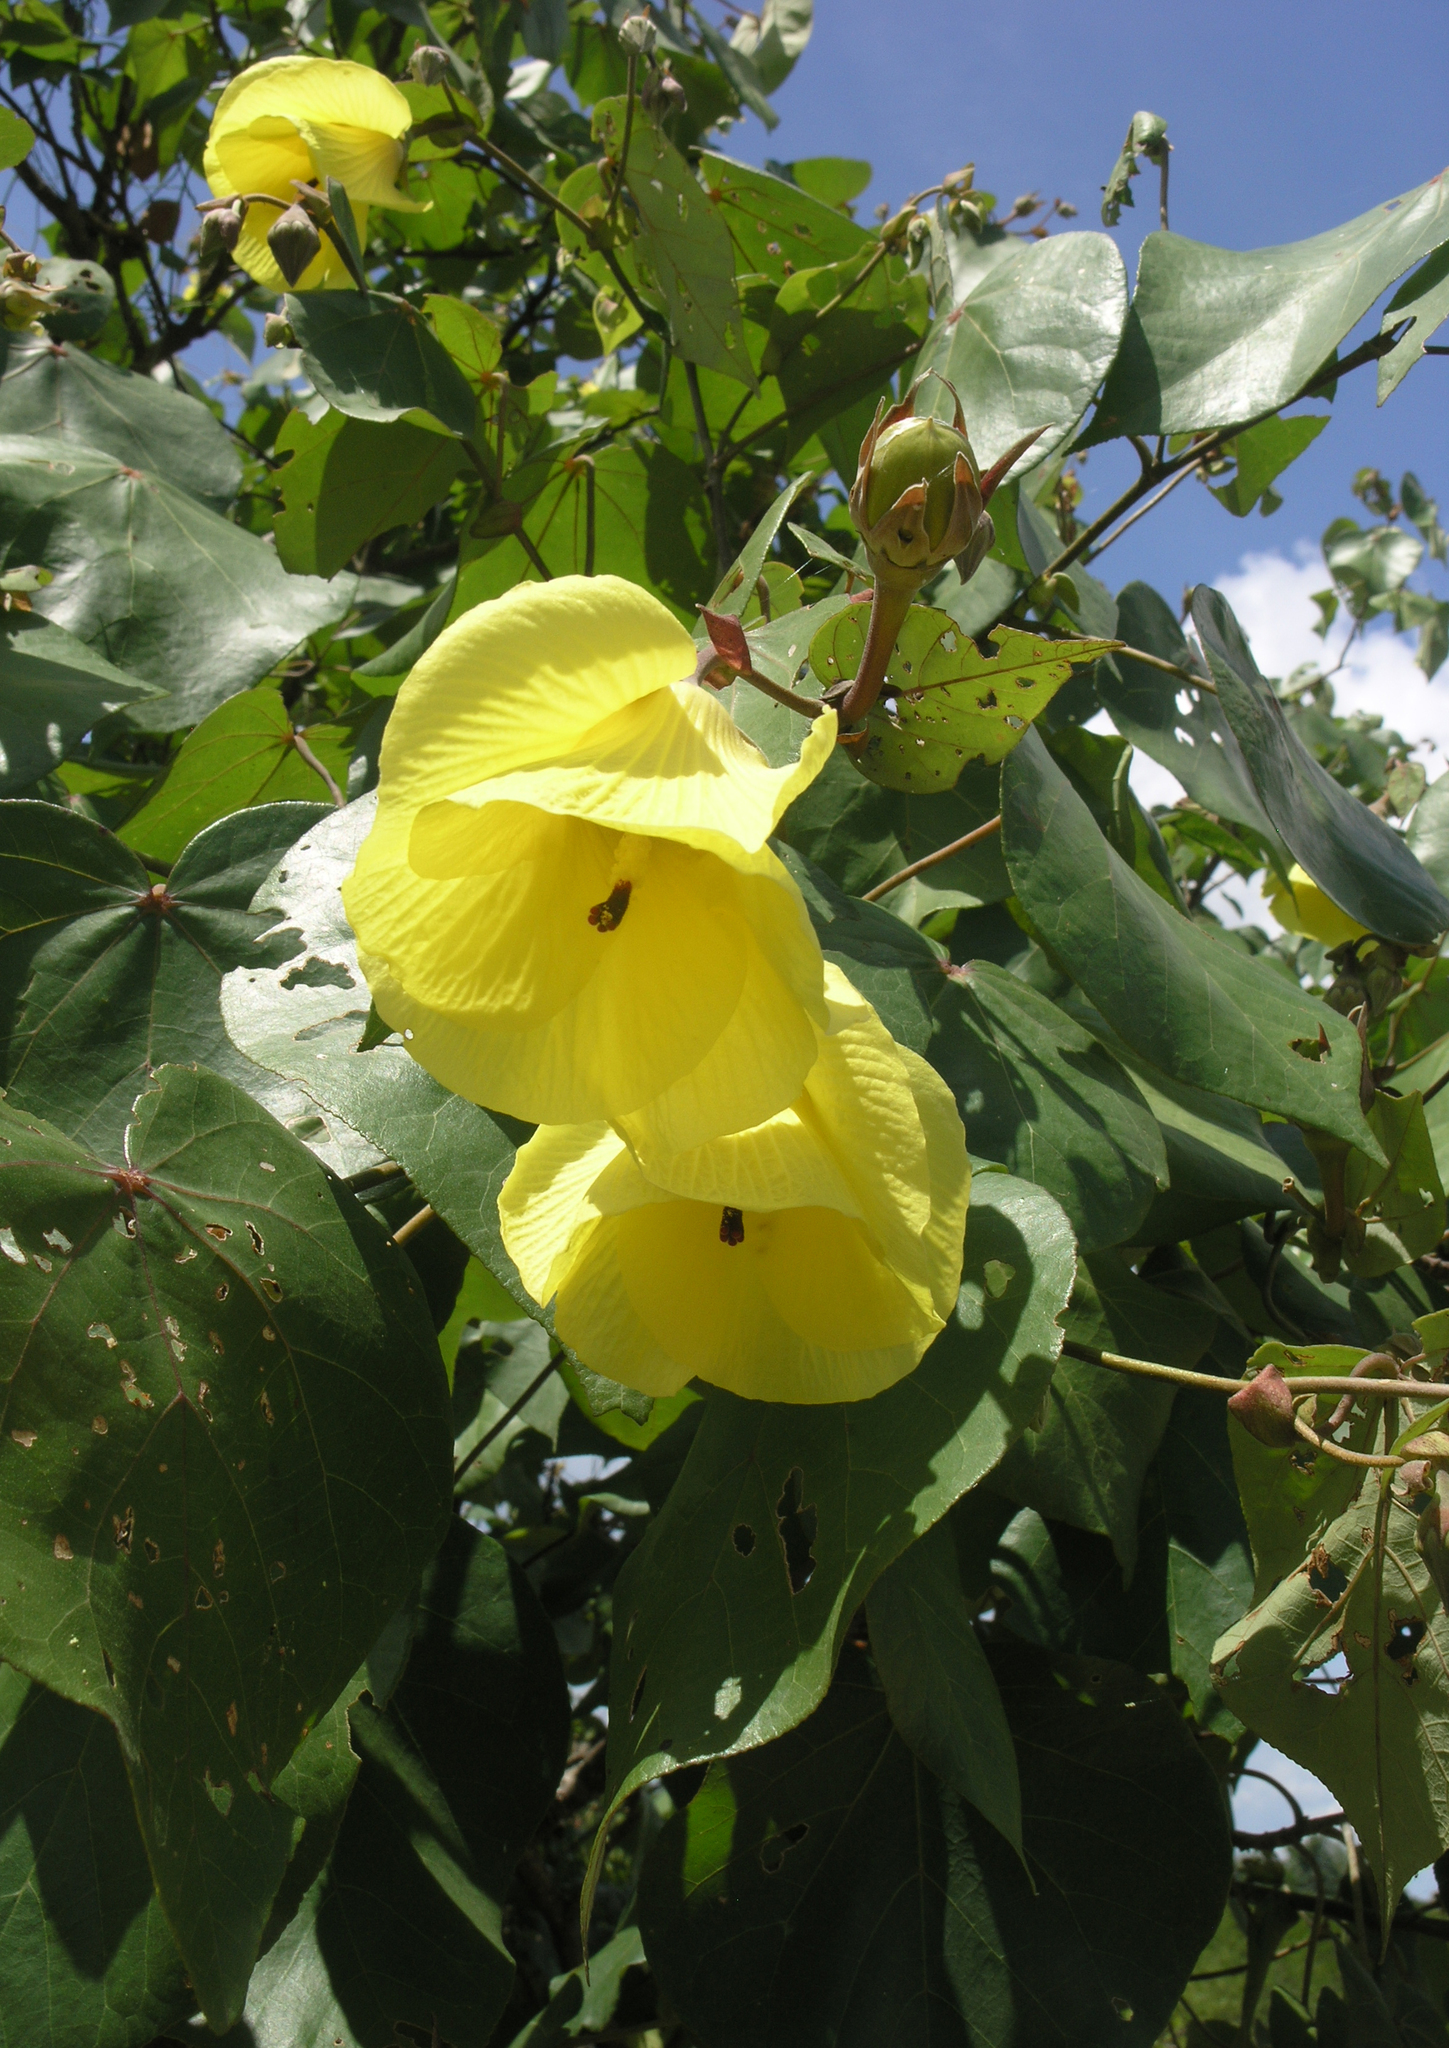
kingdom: Plantae
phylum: Tracheophyta
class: Magnoliopsida
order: Malvales
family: Malvaceae
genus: Talipariti
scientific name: Talipariti tiliaceum
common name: Sea hibiscus
